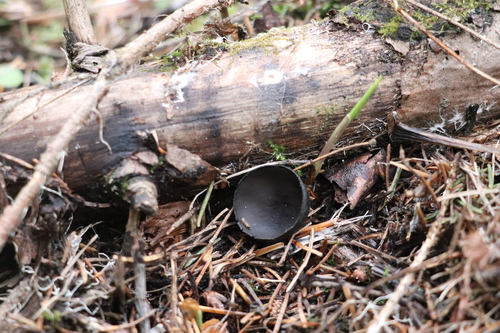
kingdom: Fungi
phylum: Ascomycota
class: Pezizomycetes
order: Pezizales
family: Sarcosomataceae
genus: Pseudoplectania
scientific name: Pseudoplectania melaena
